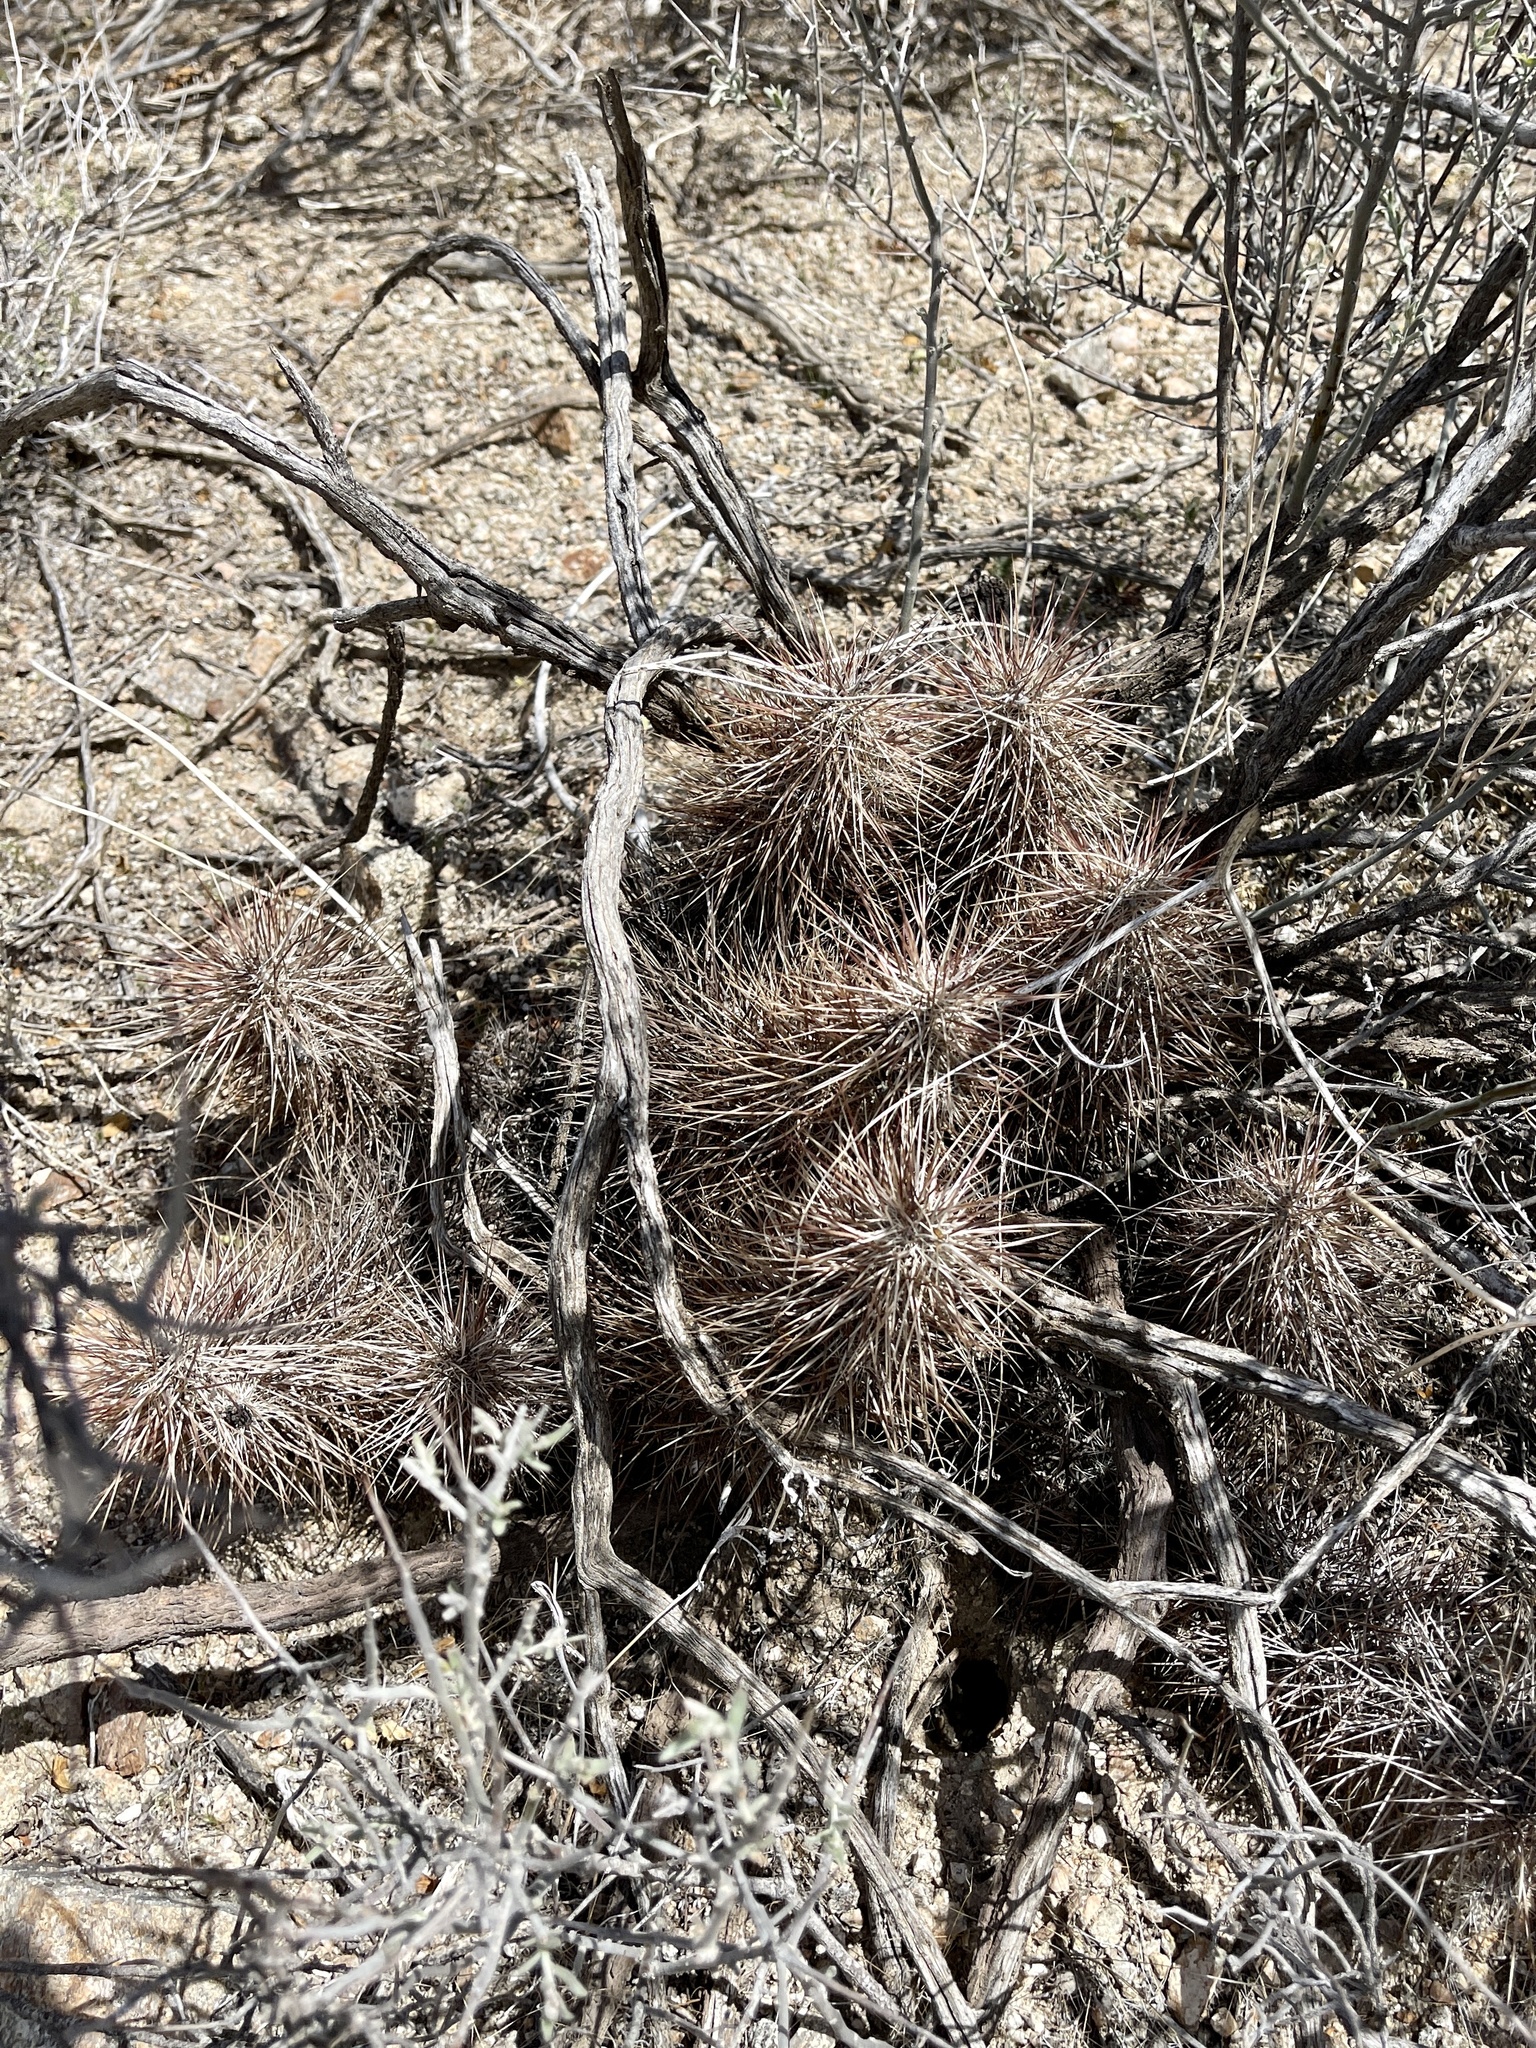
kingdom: Plantae
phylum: Tracheophyta
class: Magnoliopsida
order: Caryophyllales
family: Cactaceae
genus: Echinocereus
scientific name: Echinocereus engelmannii
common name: Engelmann's hedgehog cactus
